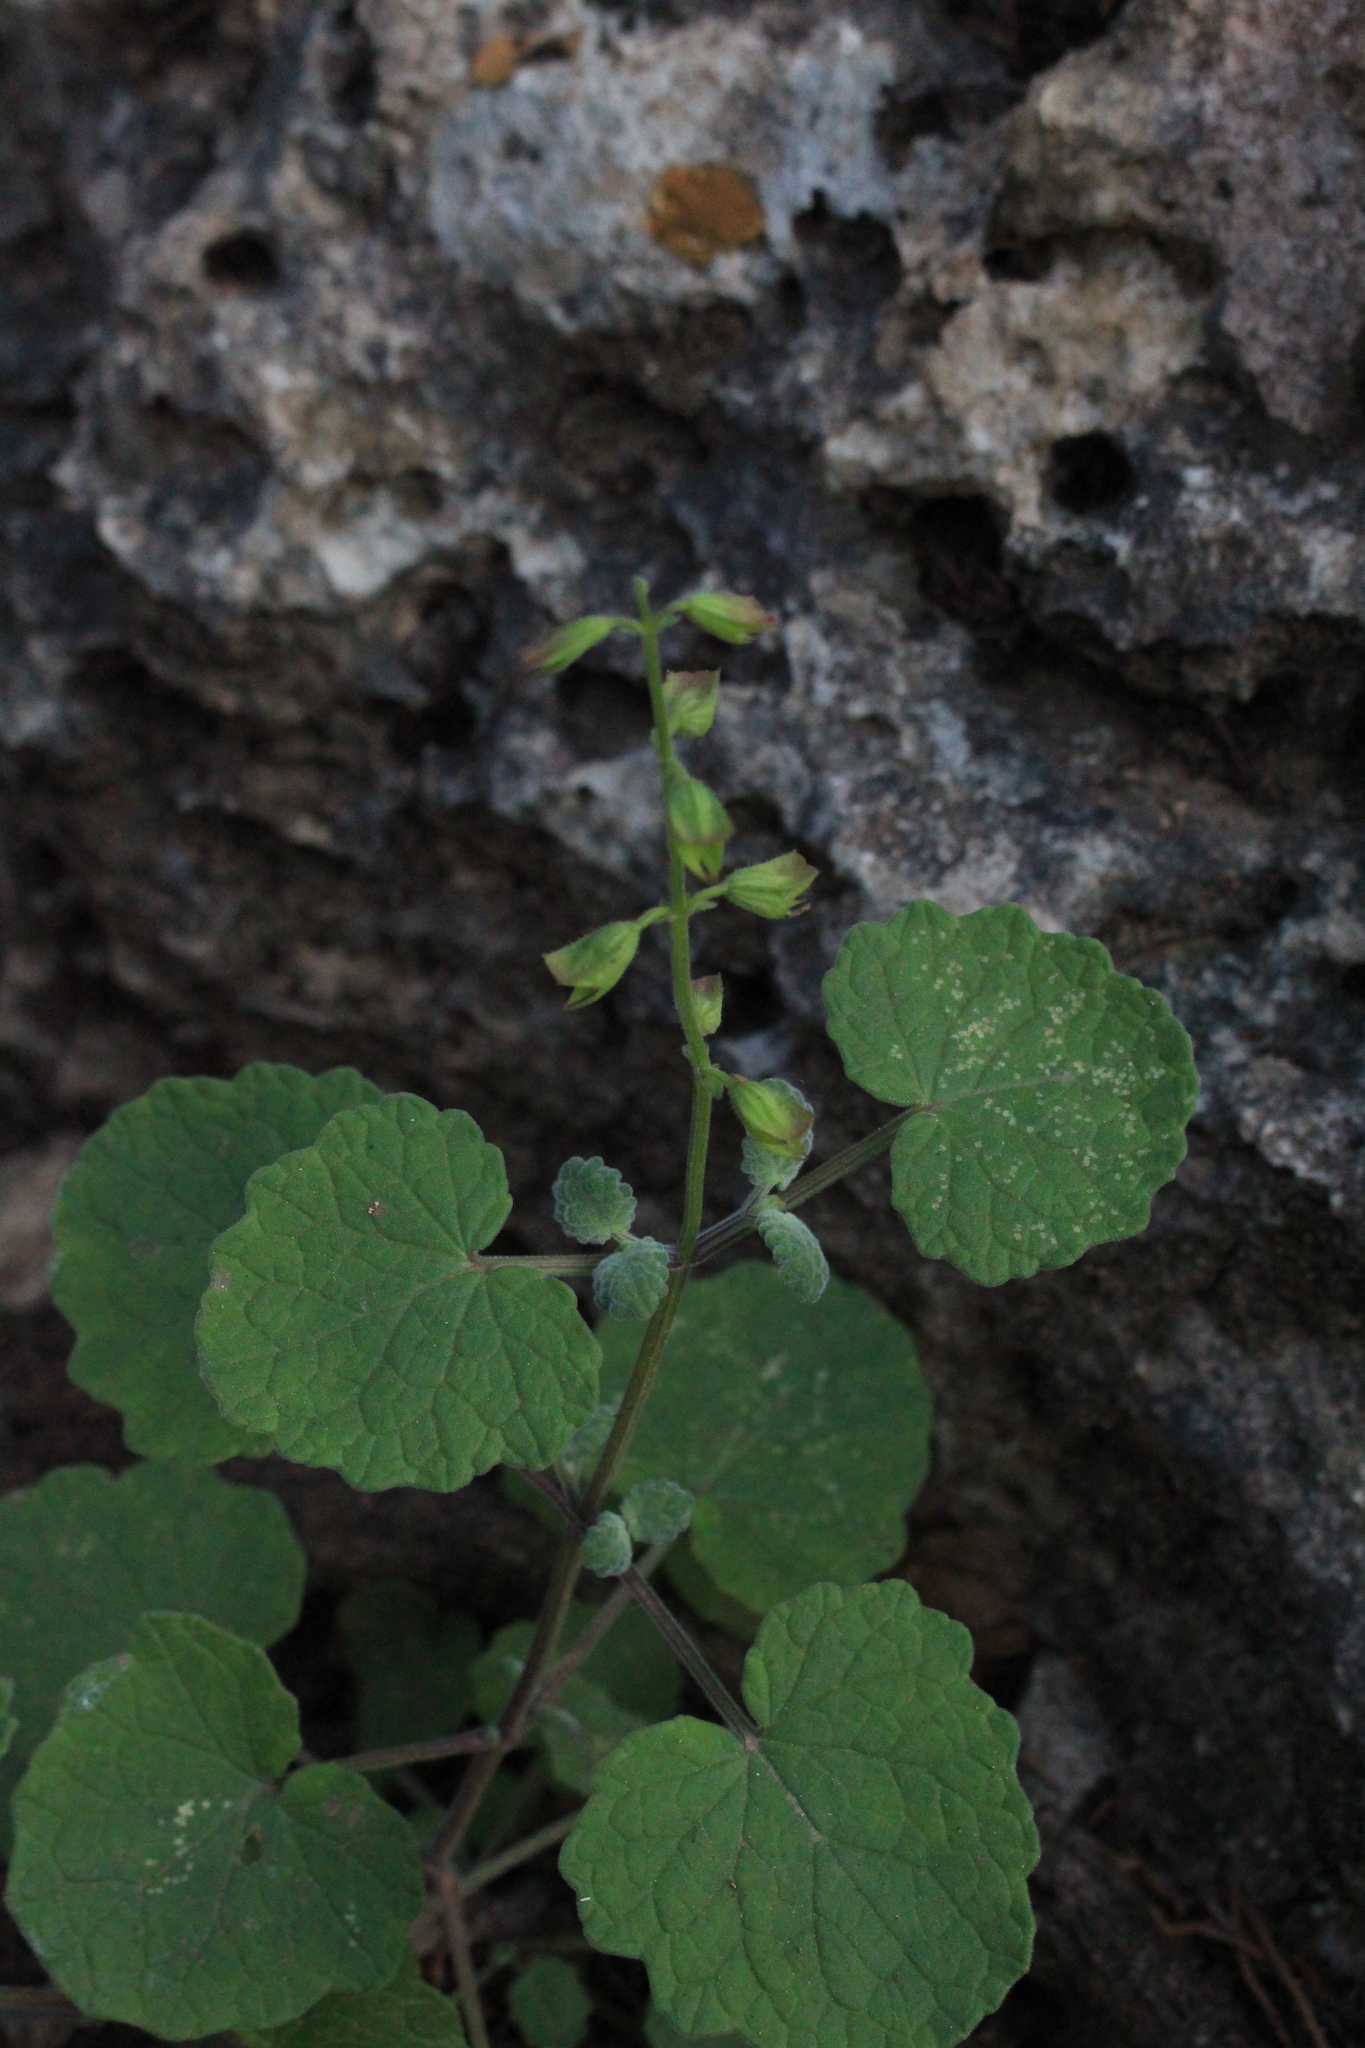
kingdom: Plantae
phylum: Tracheophyta
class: Magnoliopsida
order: Lamiales
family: Lamiaceae
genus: Salvia
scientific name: Salvia roemeriana
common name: Cedar sage
